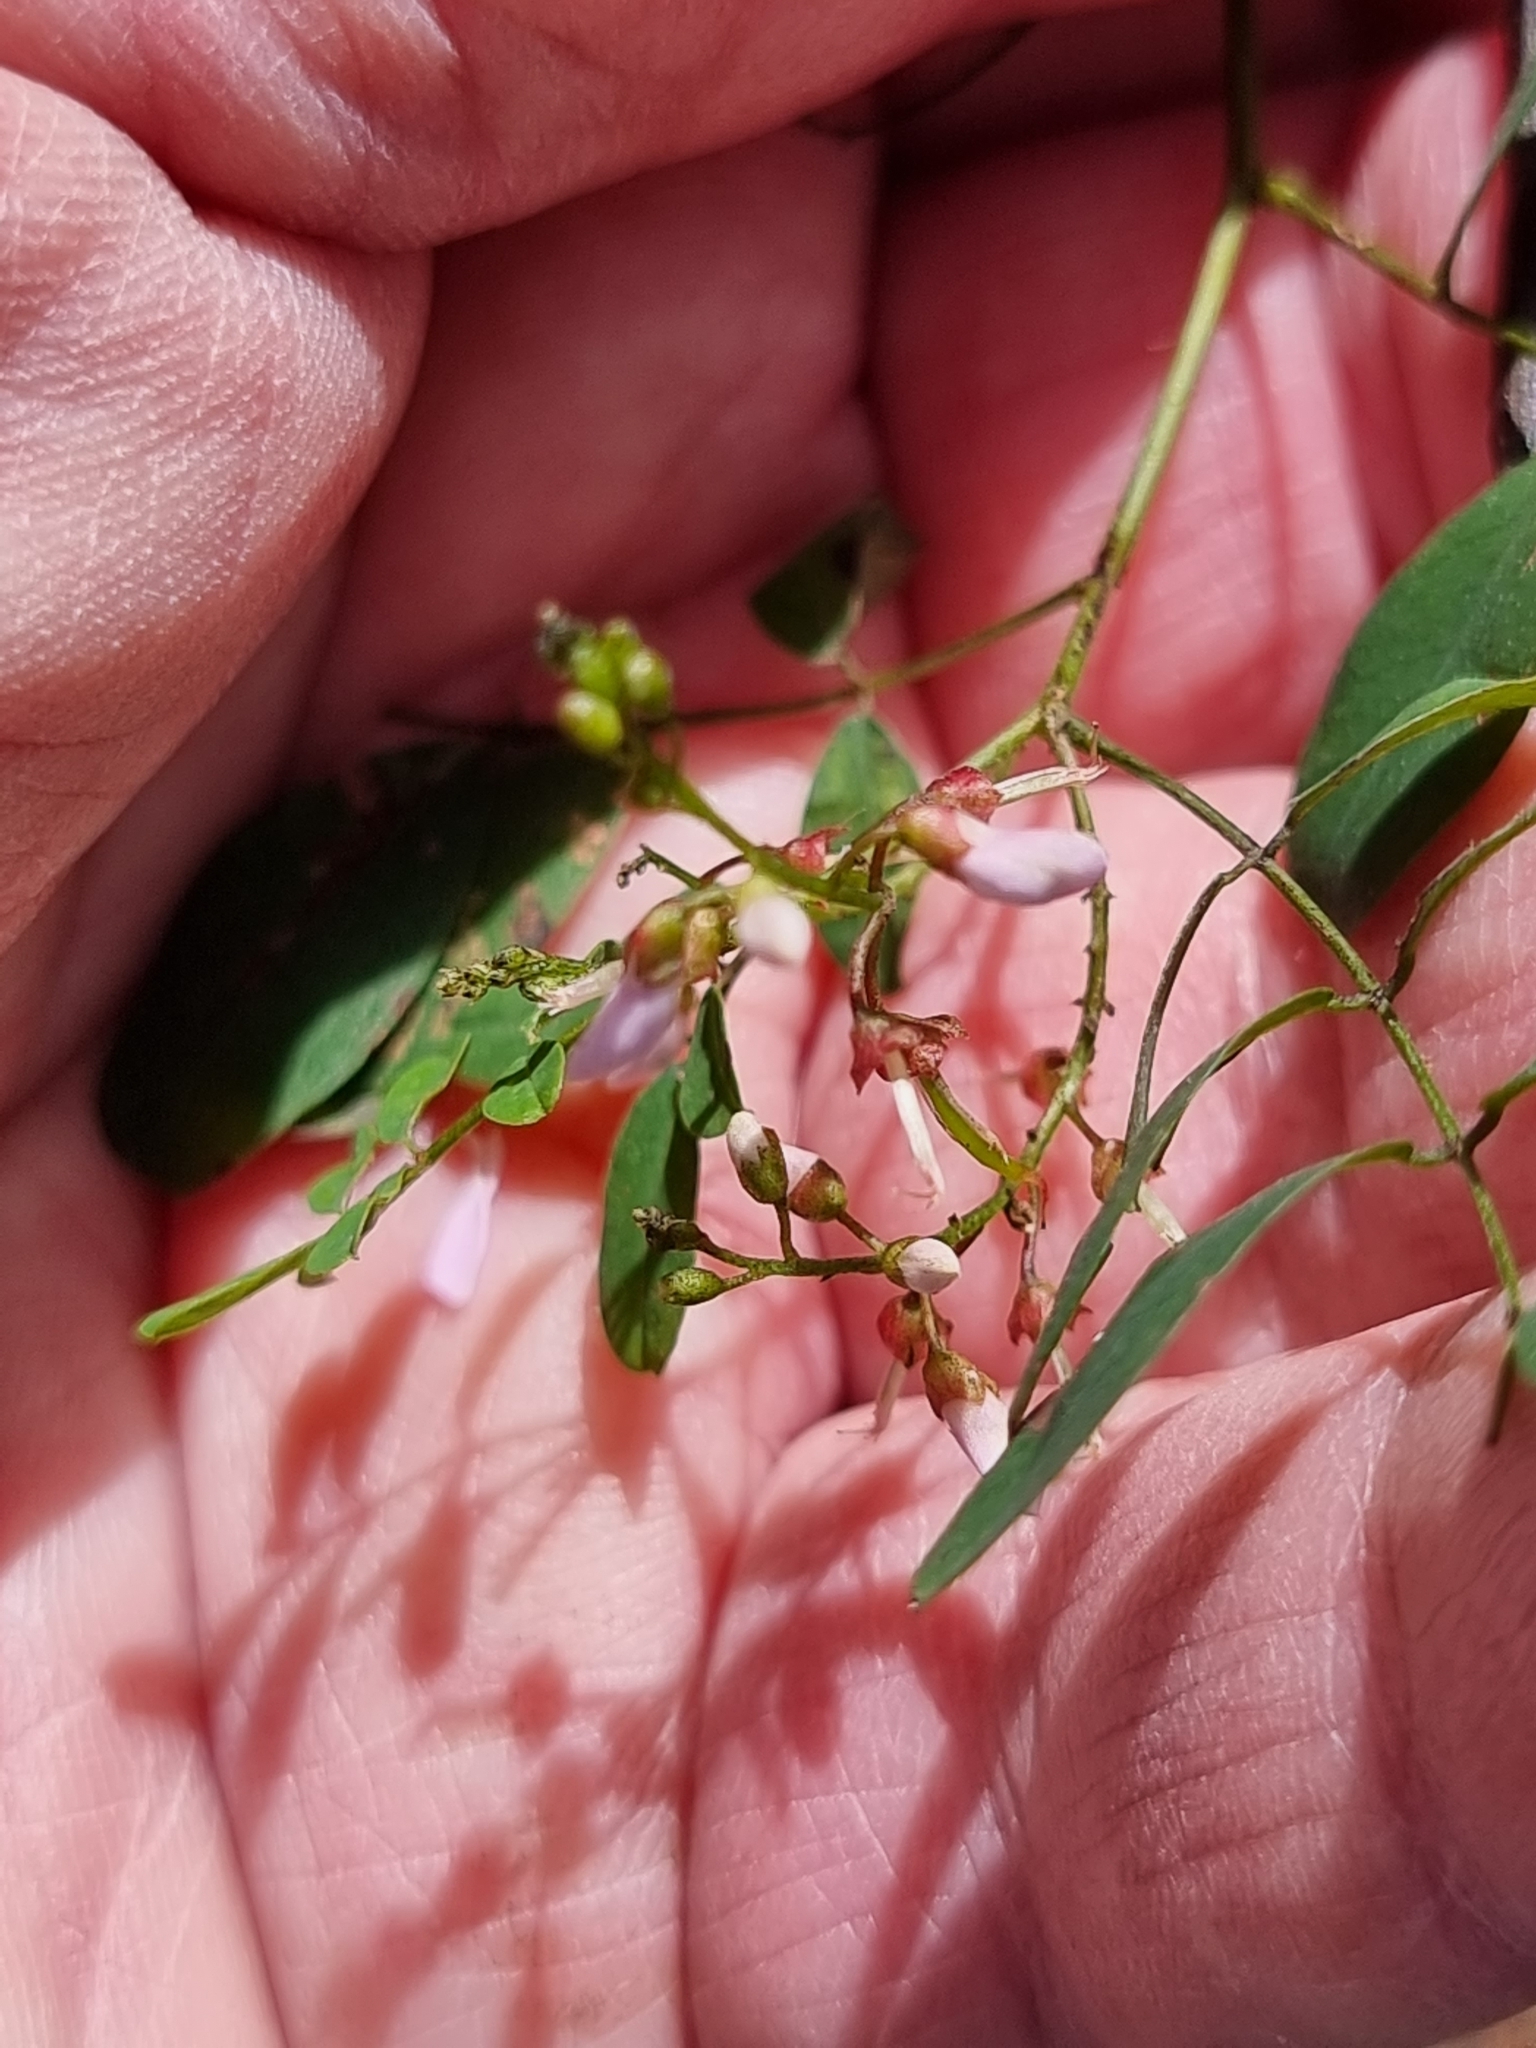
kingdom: Plantae
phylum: Tracheophyta
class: Magnoliopsida
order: Fabales
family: Fabaceae
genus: Indigofera
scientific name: Indigofera australis
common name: Australian indigo
